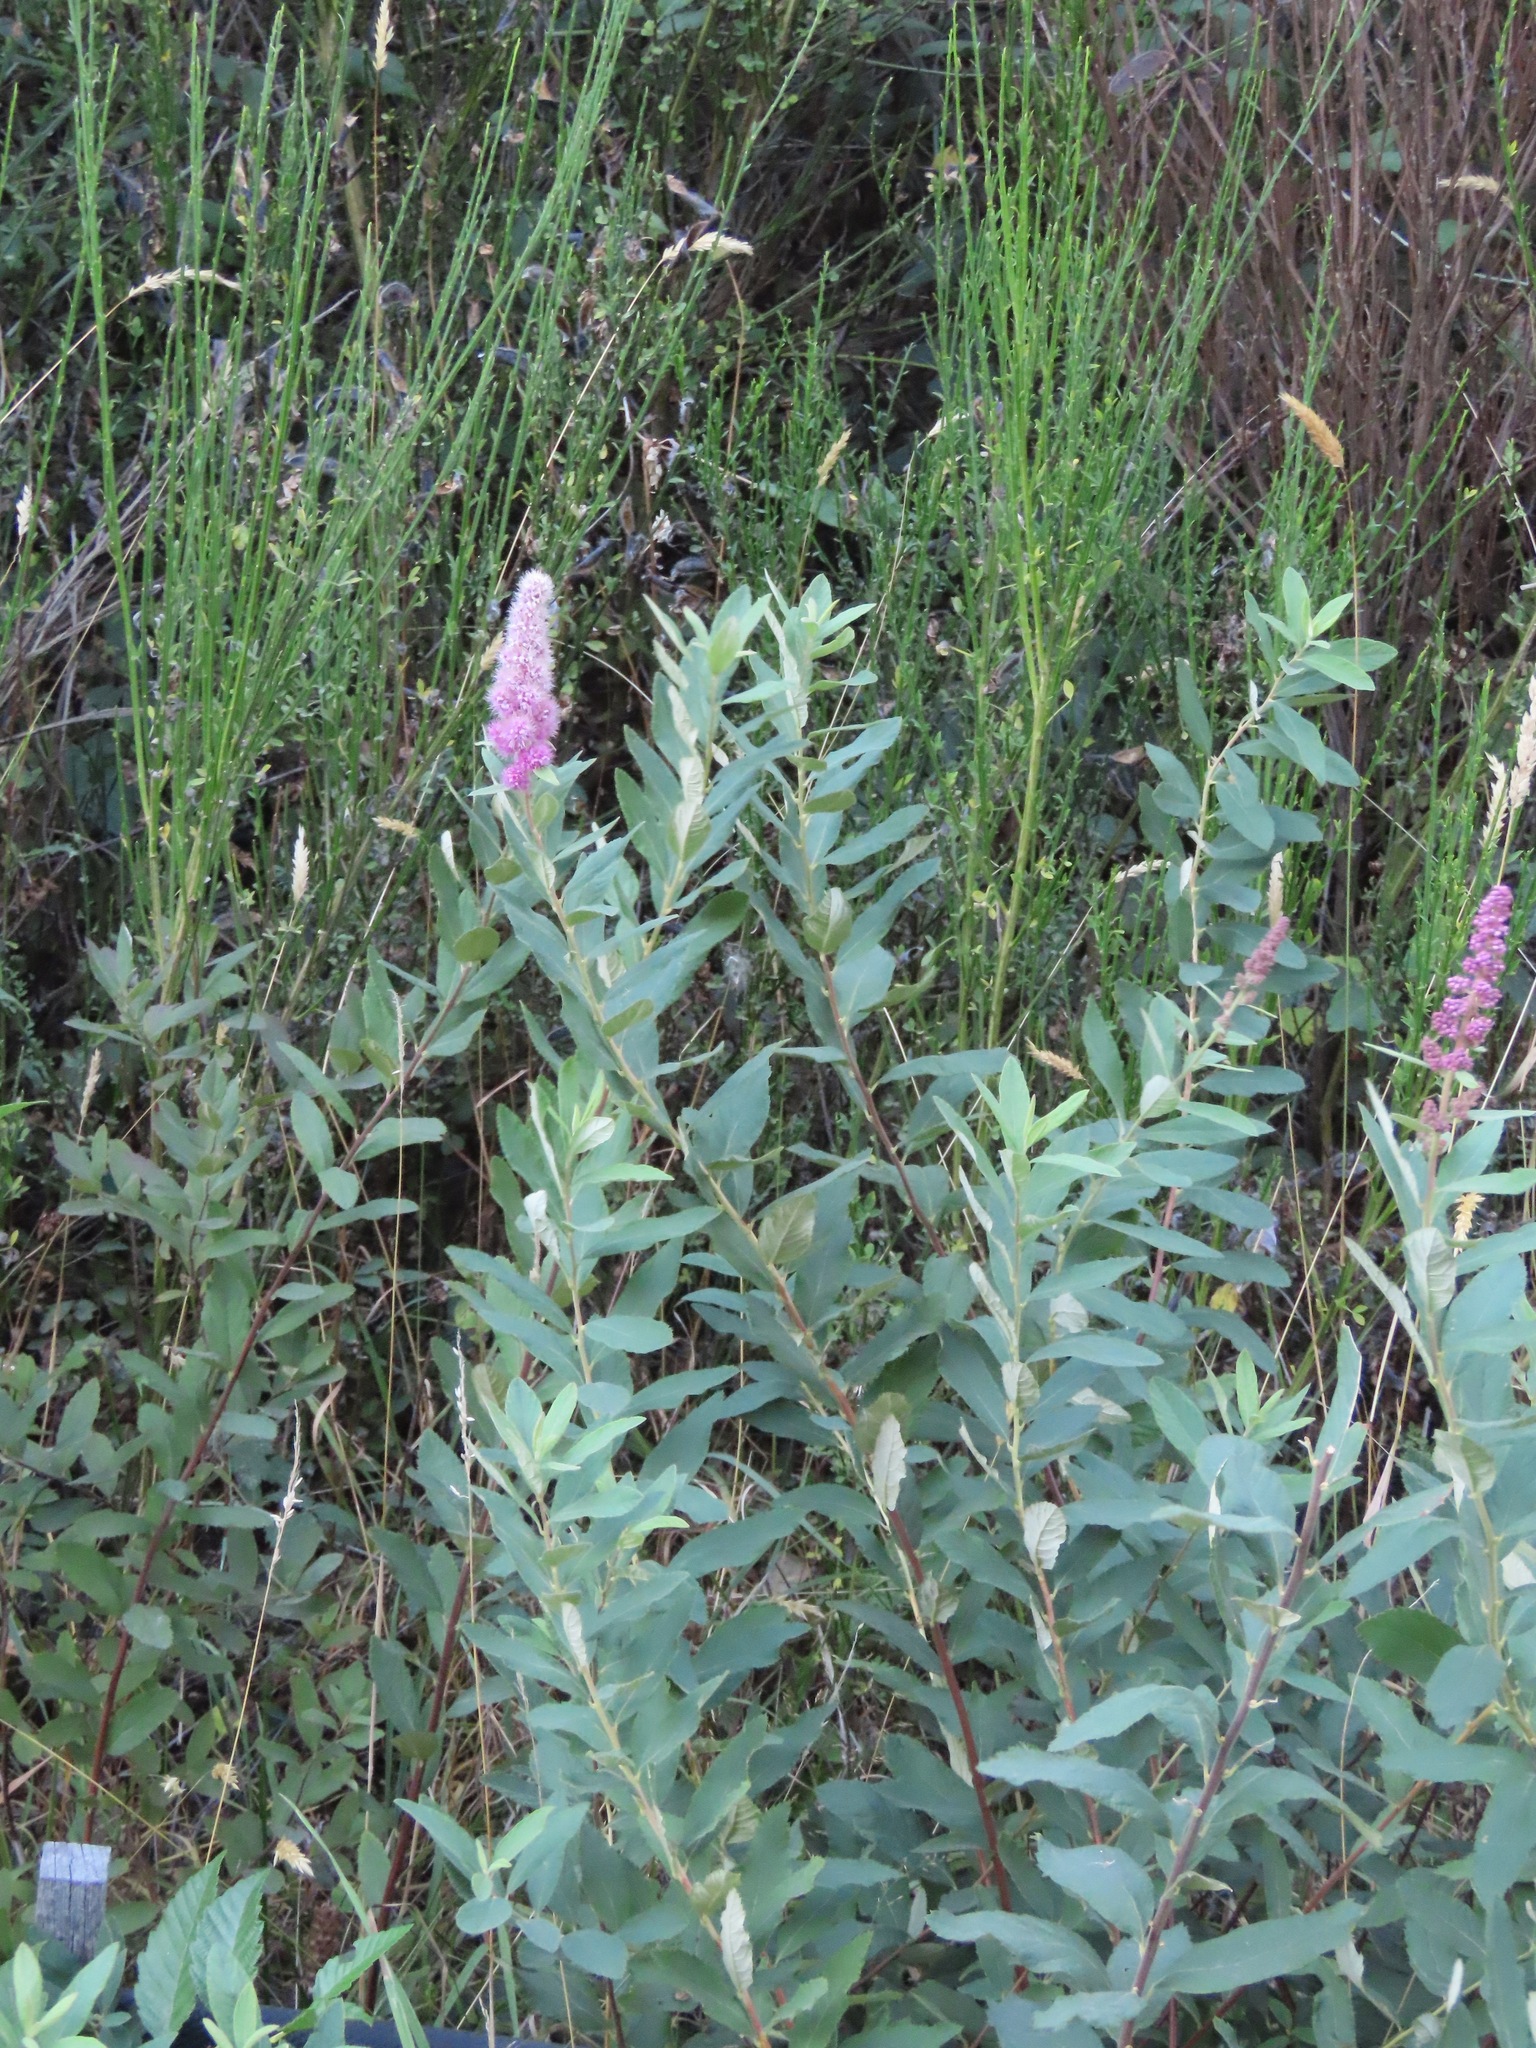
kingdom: Plantae
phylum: Tracheophyta
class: Magnoliopsida
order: Rosales
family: Rosaceae
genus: Spiraea
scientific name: Spiraea douglasii
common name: Steeplebush
